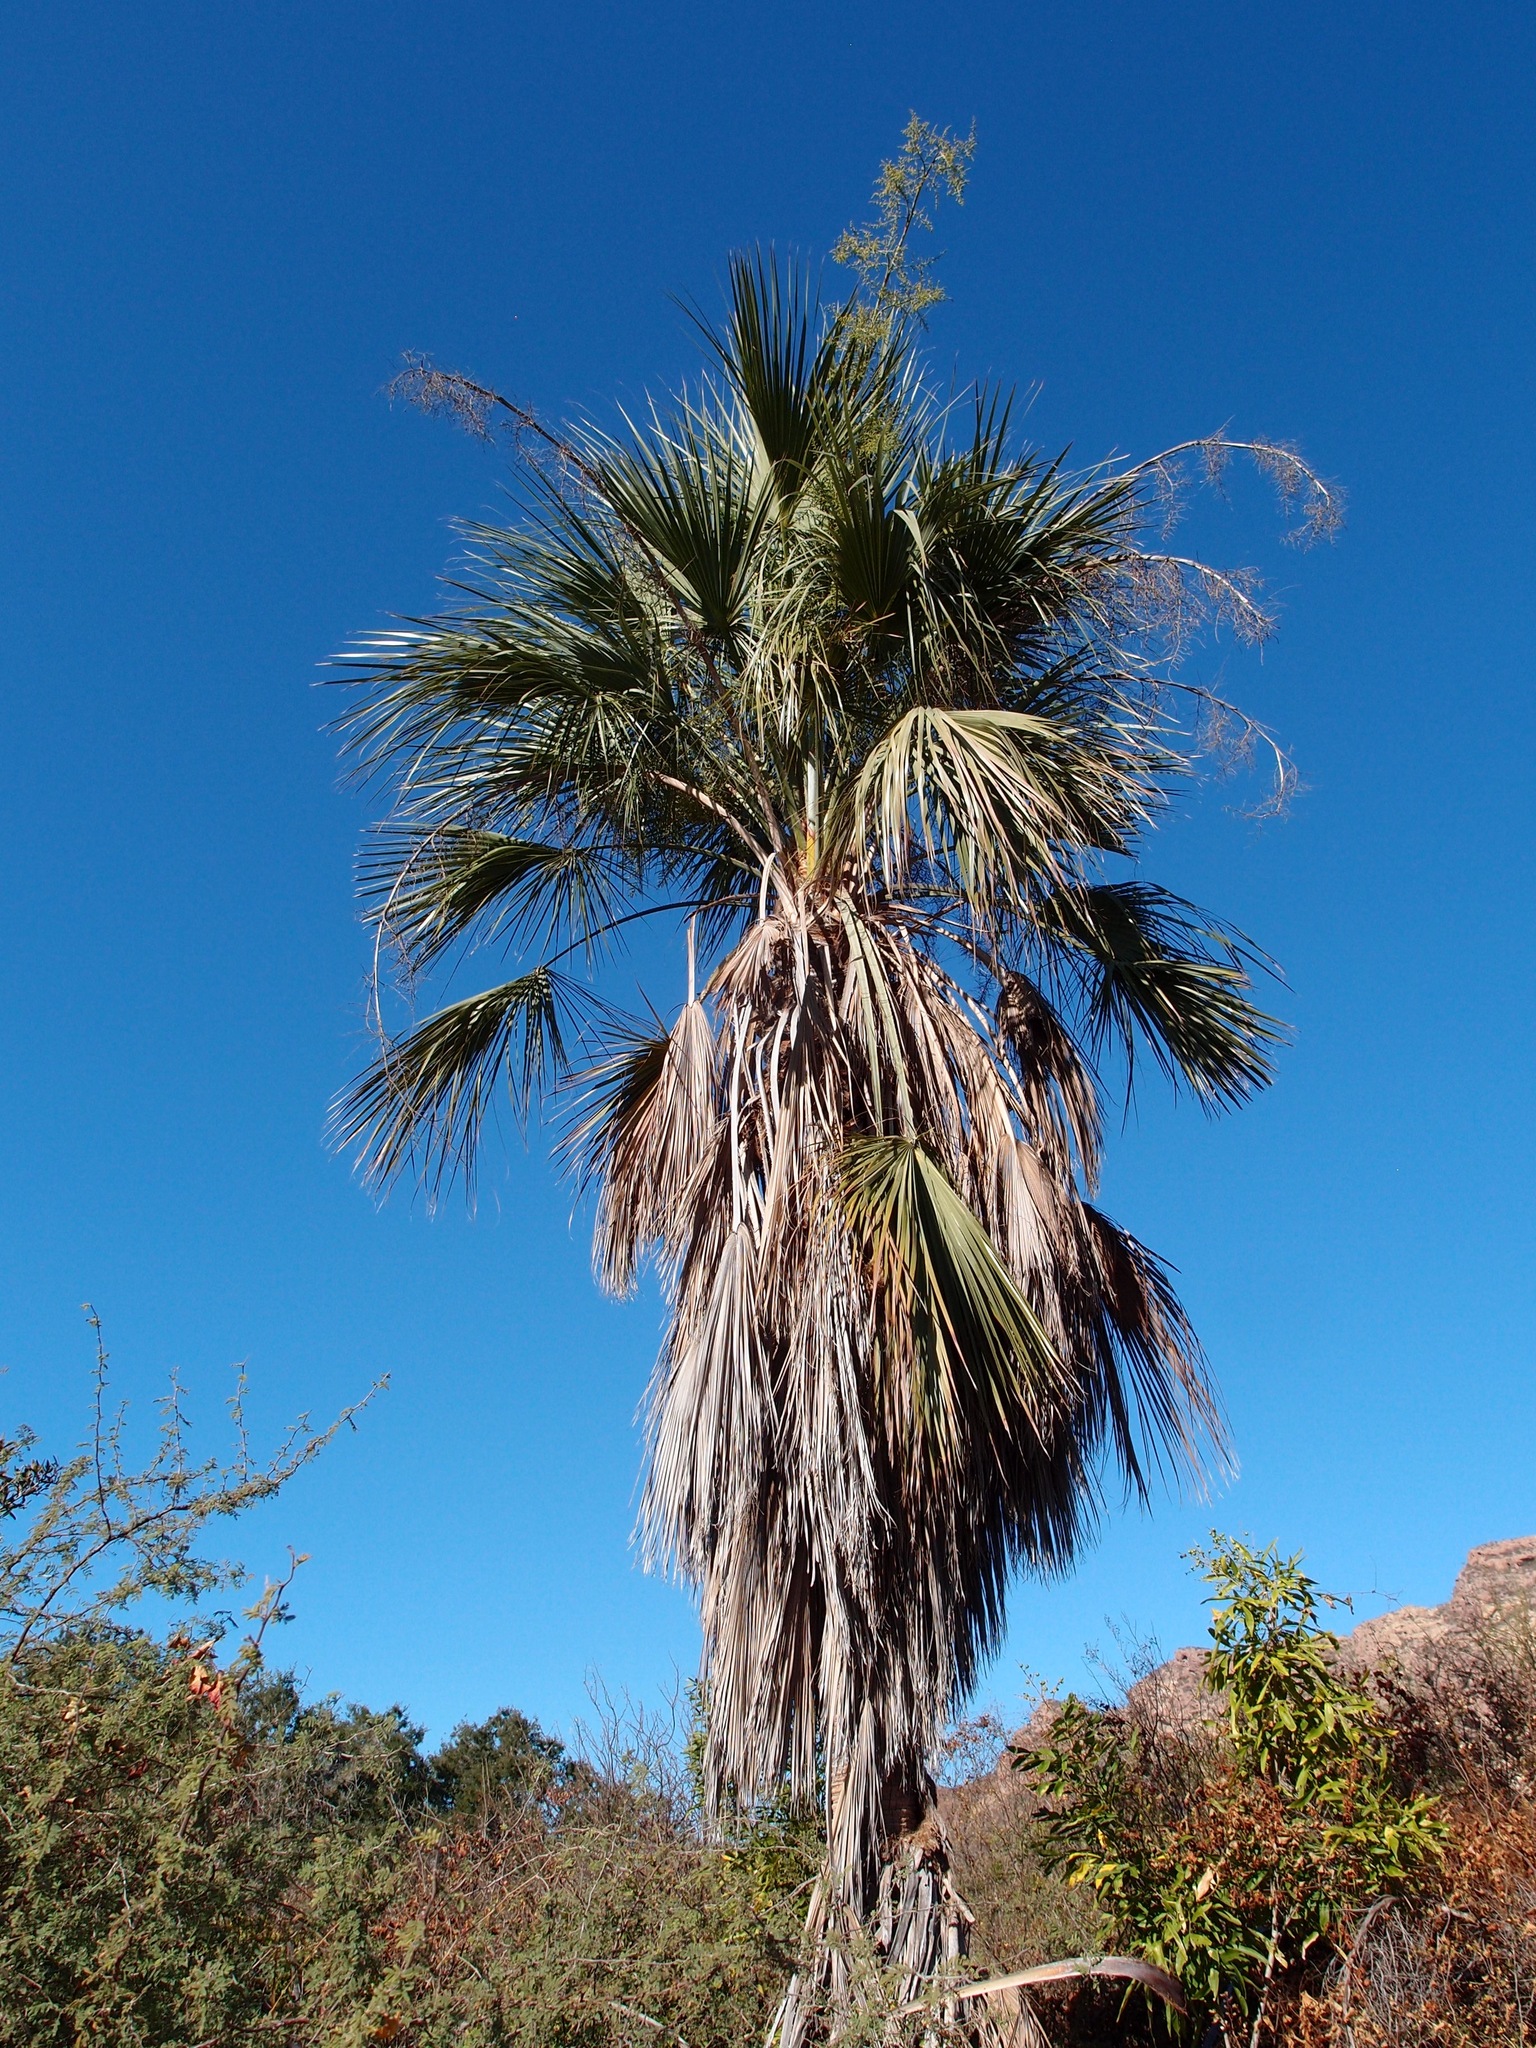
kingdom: Plantae
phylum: Tracheophyta
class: Liliopsida
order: Arecales
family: Arecaceae
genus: Brahea
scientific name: Brahea brandegeei
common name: San jose hesper palm
